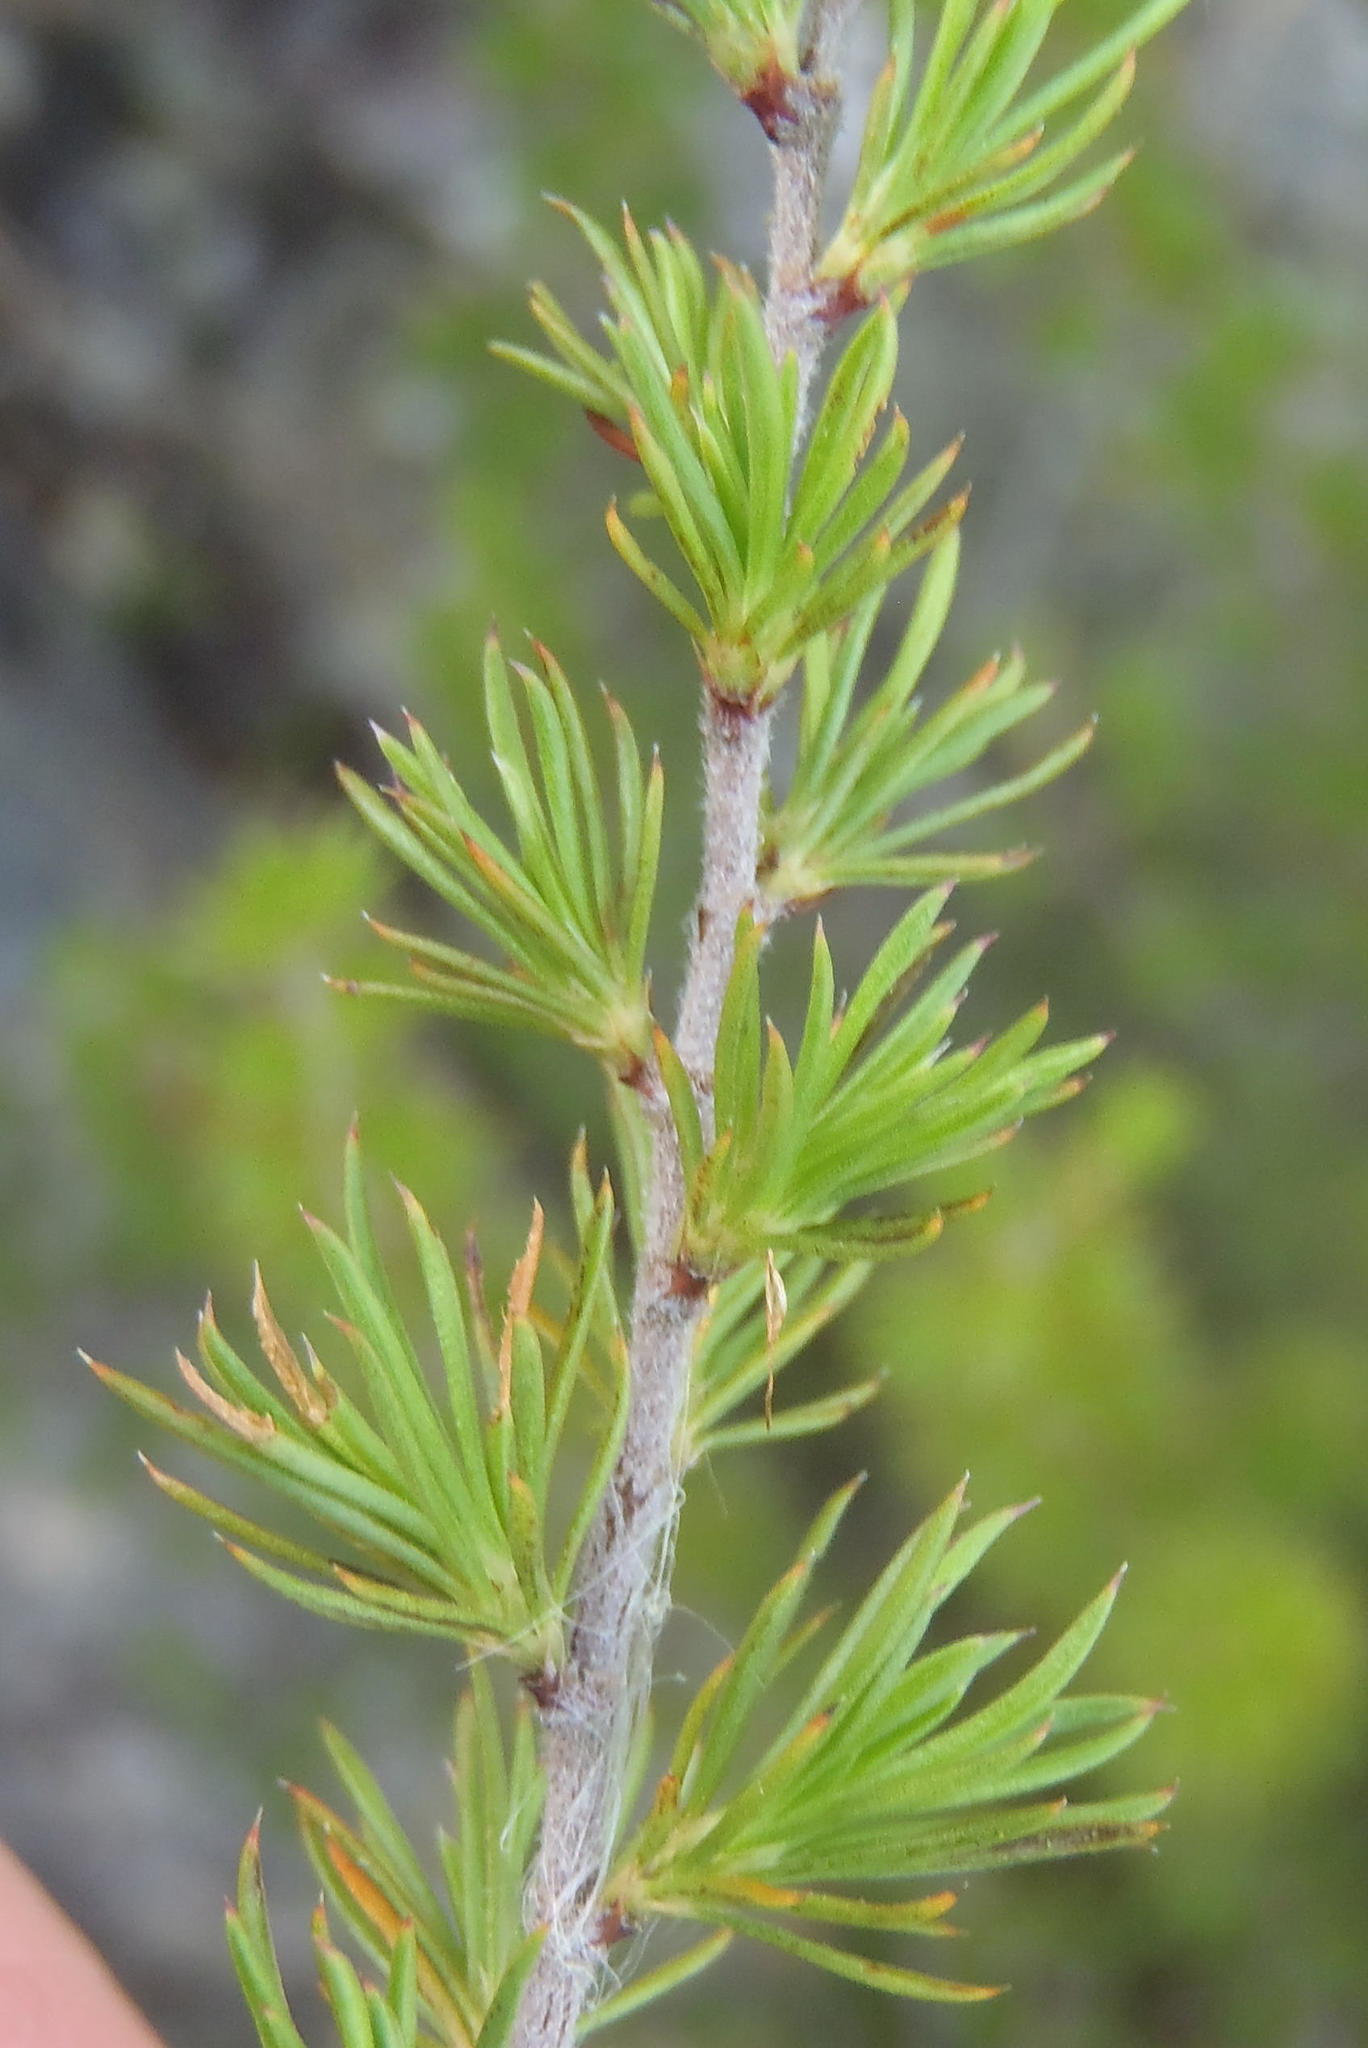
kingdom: Plantae
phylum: Tracheophyta
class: Magnoliopsida
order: Rosales
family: Rosaceae
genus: Cliffortia
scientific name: Cliffortia tuberculata
